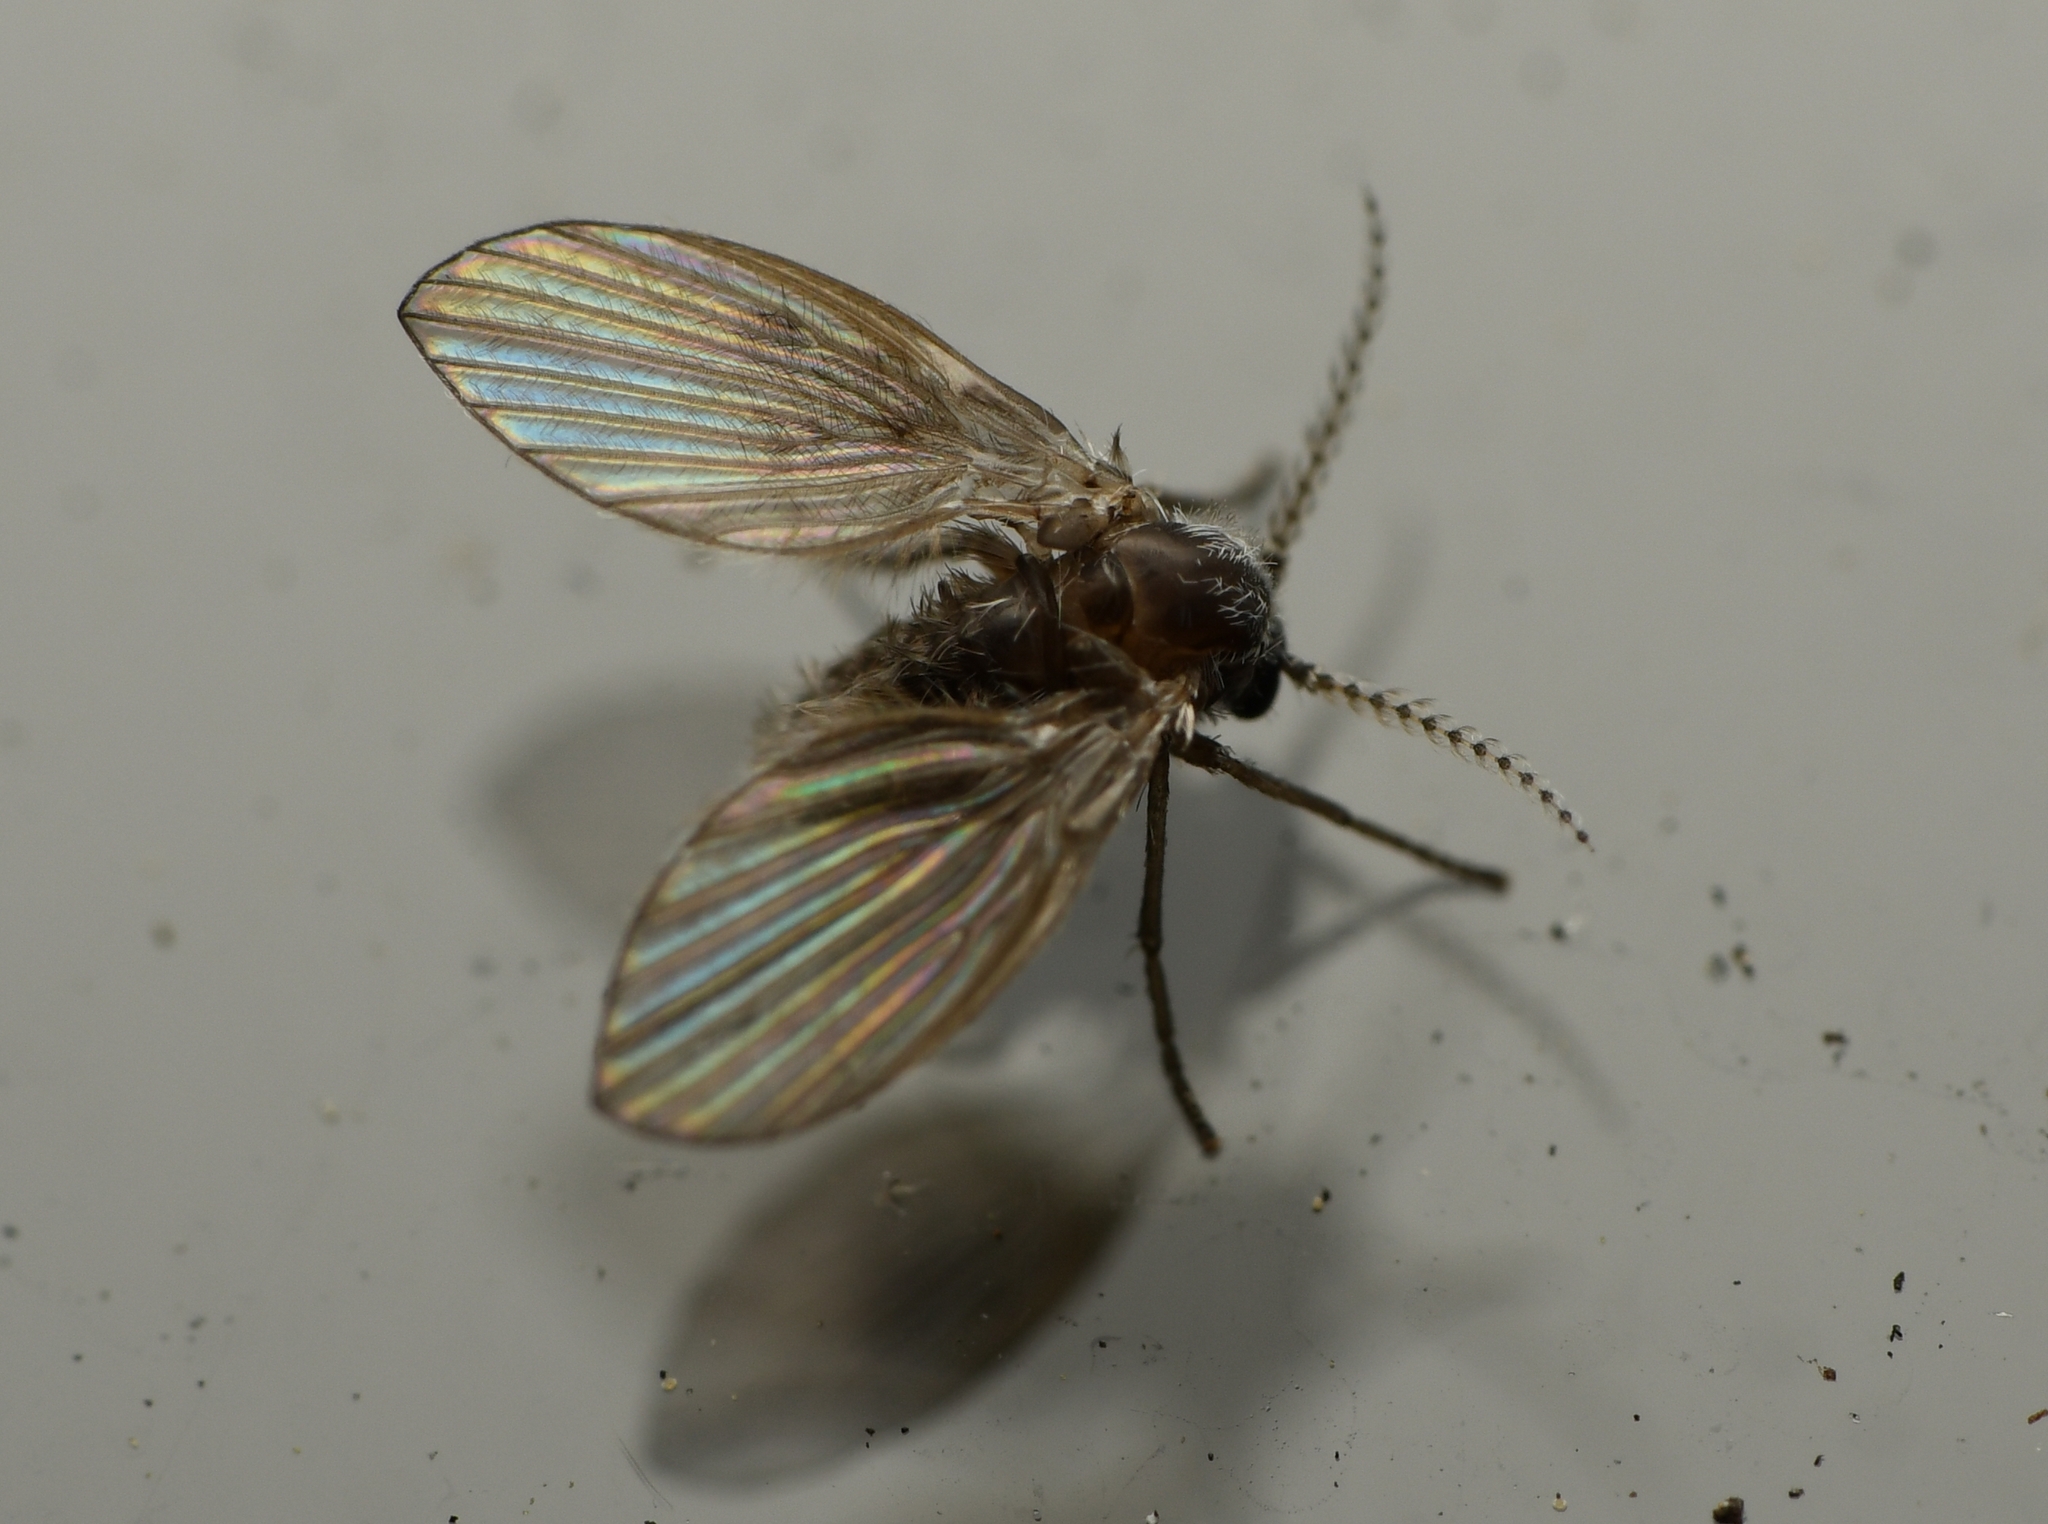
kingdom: Animalia
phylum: Arthropoda
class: Insecta
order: Diptera
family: Psychodidae
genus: Clogmia
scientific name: Clogmia albipunctatus
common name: White-spotted moth fly
